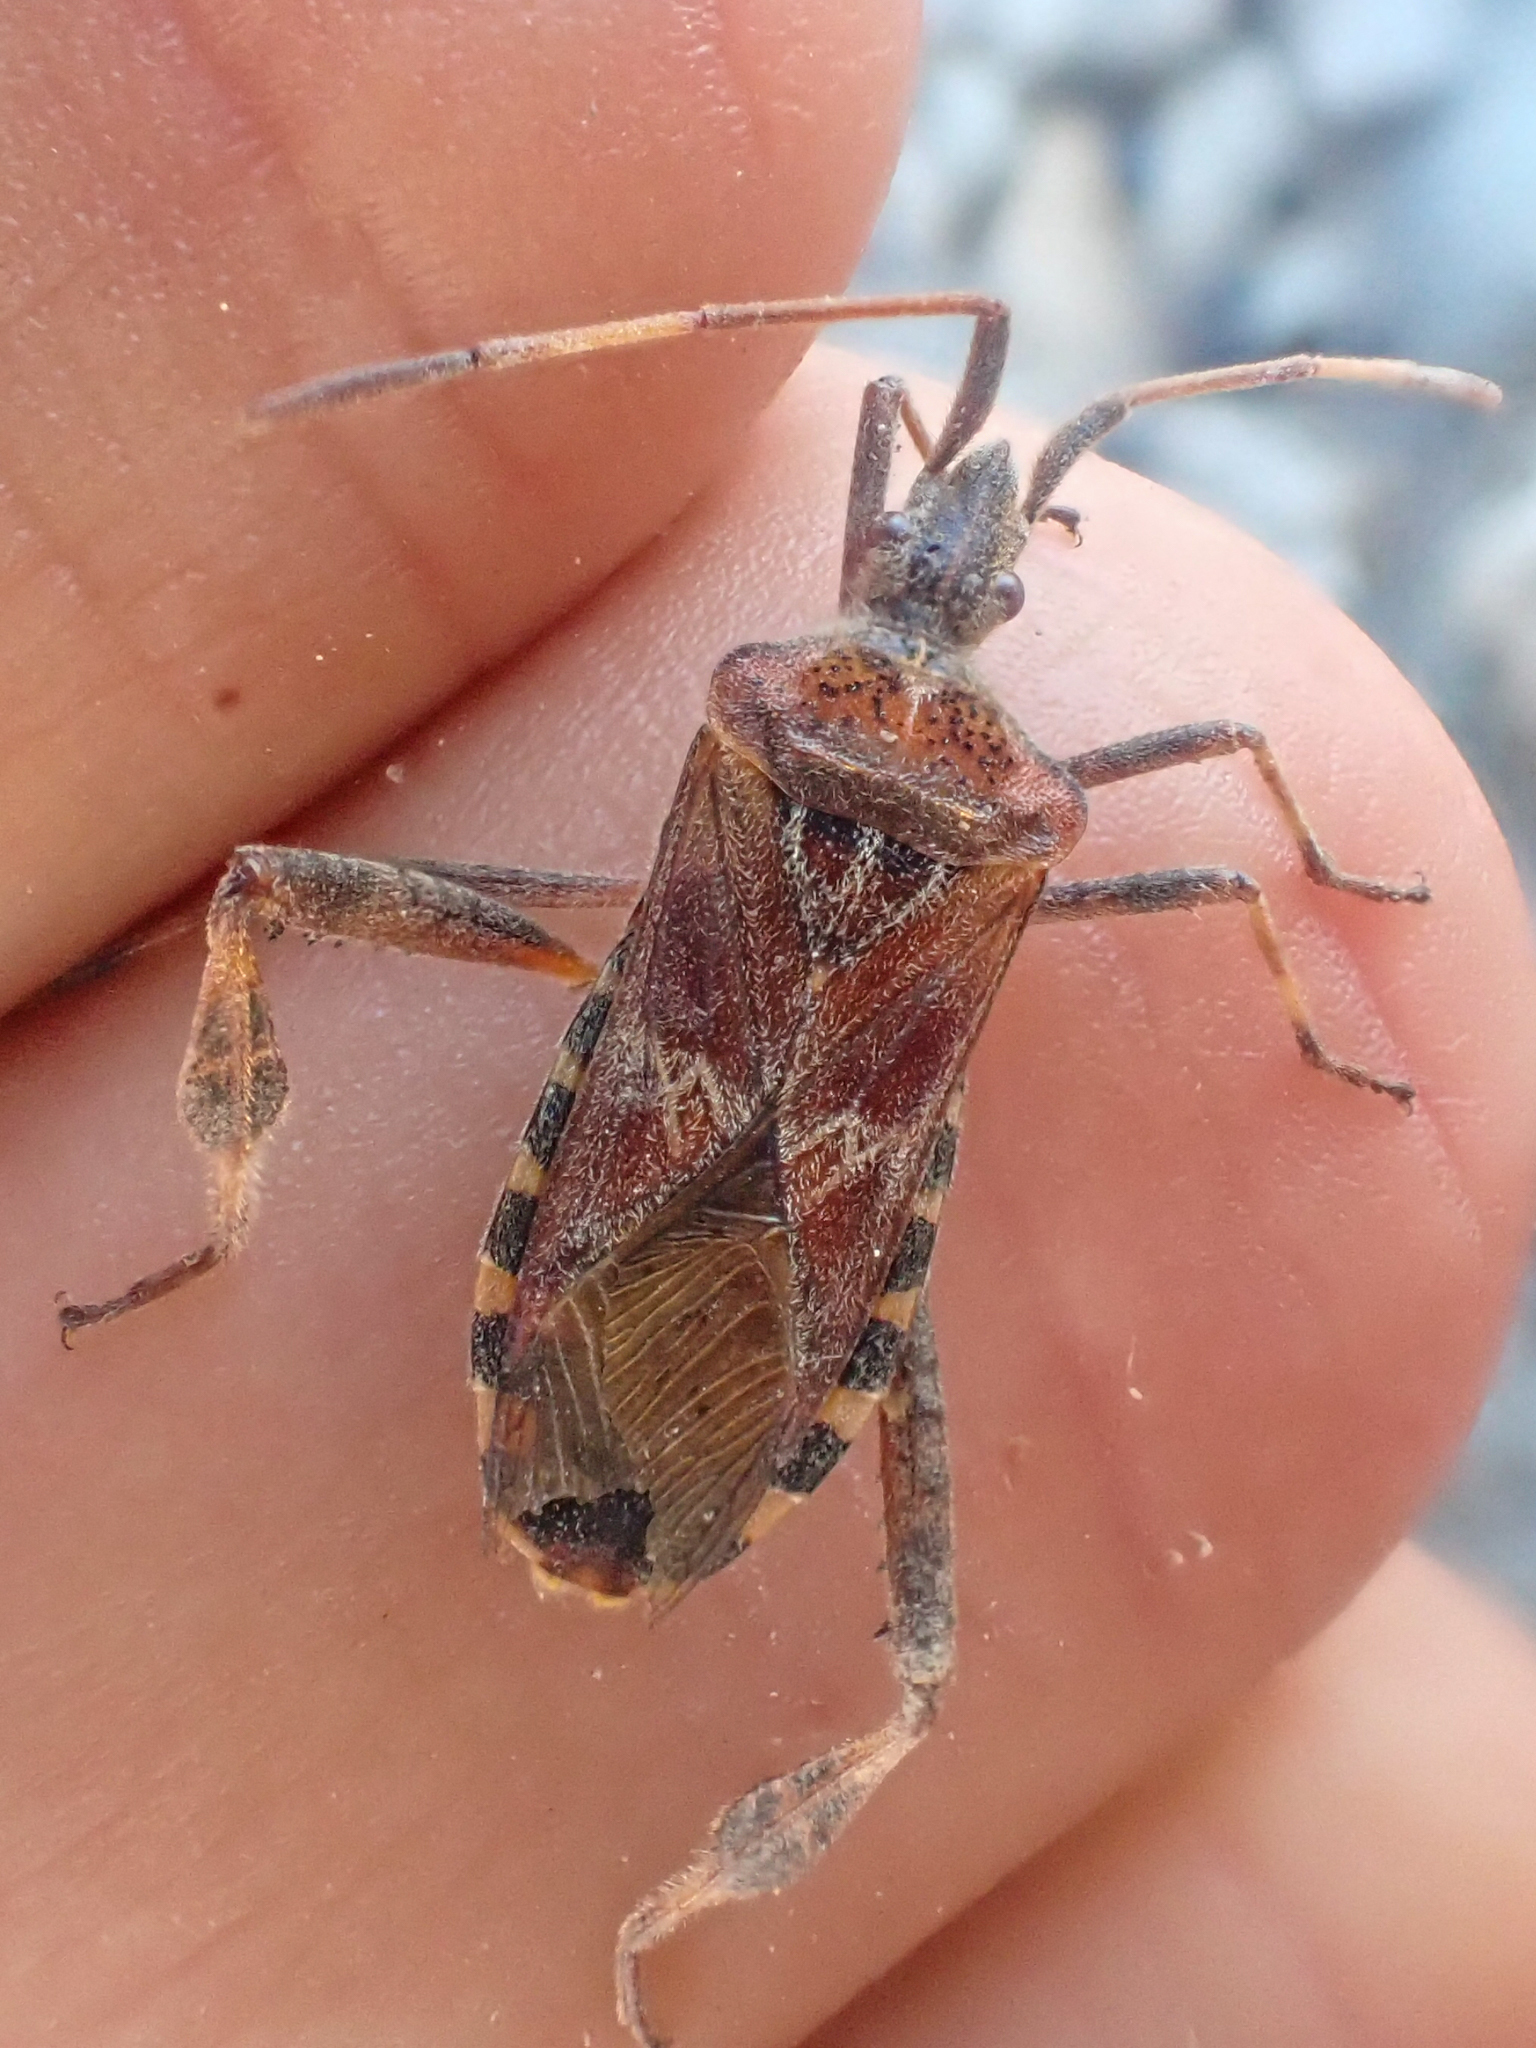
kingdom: Animalia
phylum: Arthropoda
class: Insecta
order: Hemiptera
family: Coreidae
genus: Leptoglossus
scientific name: Leptoglossus occidentalis
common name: Western conifer-seed bug
